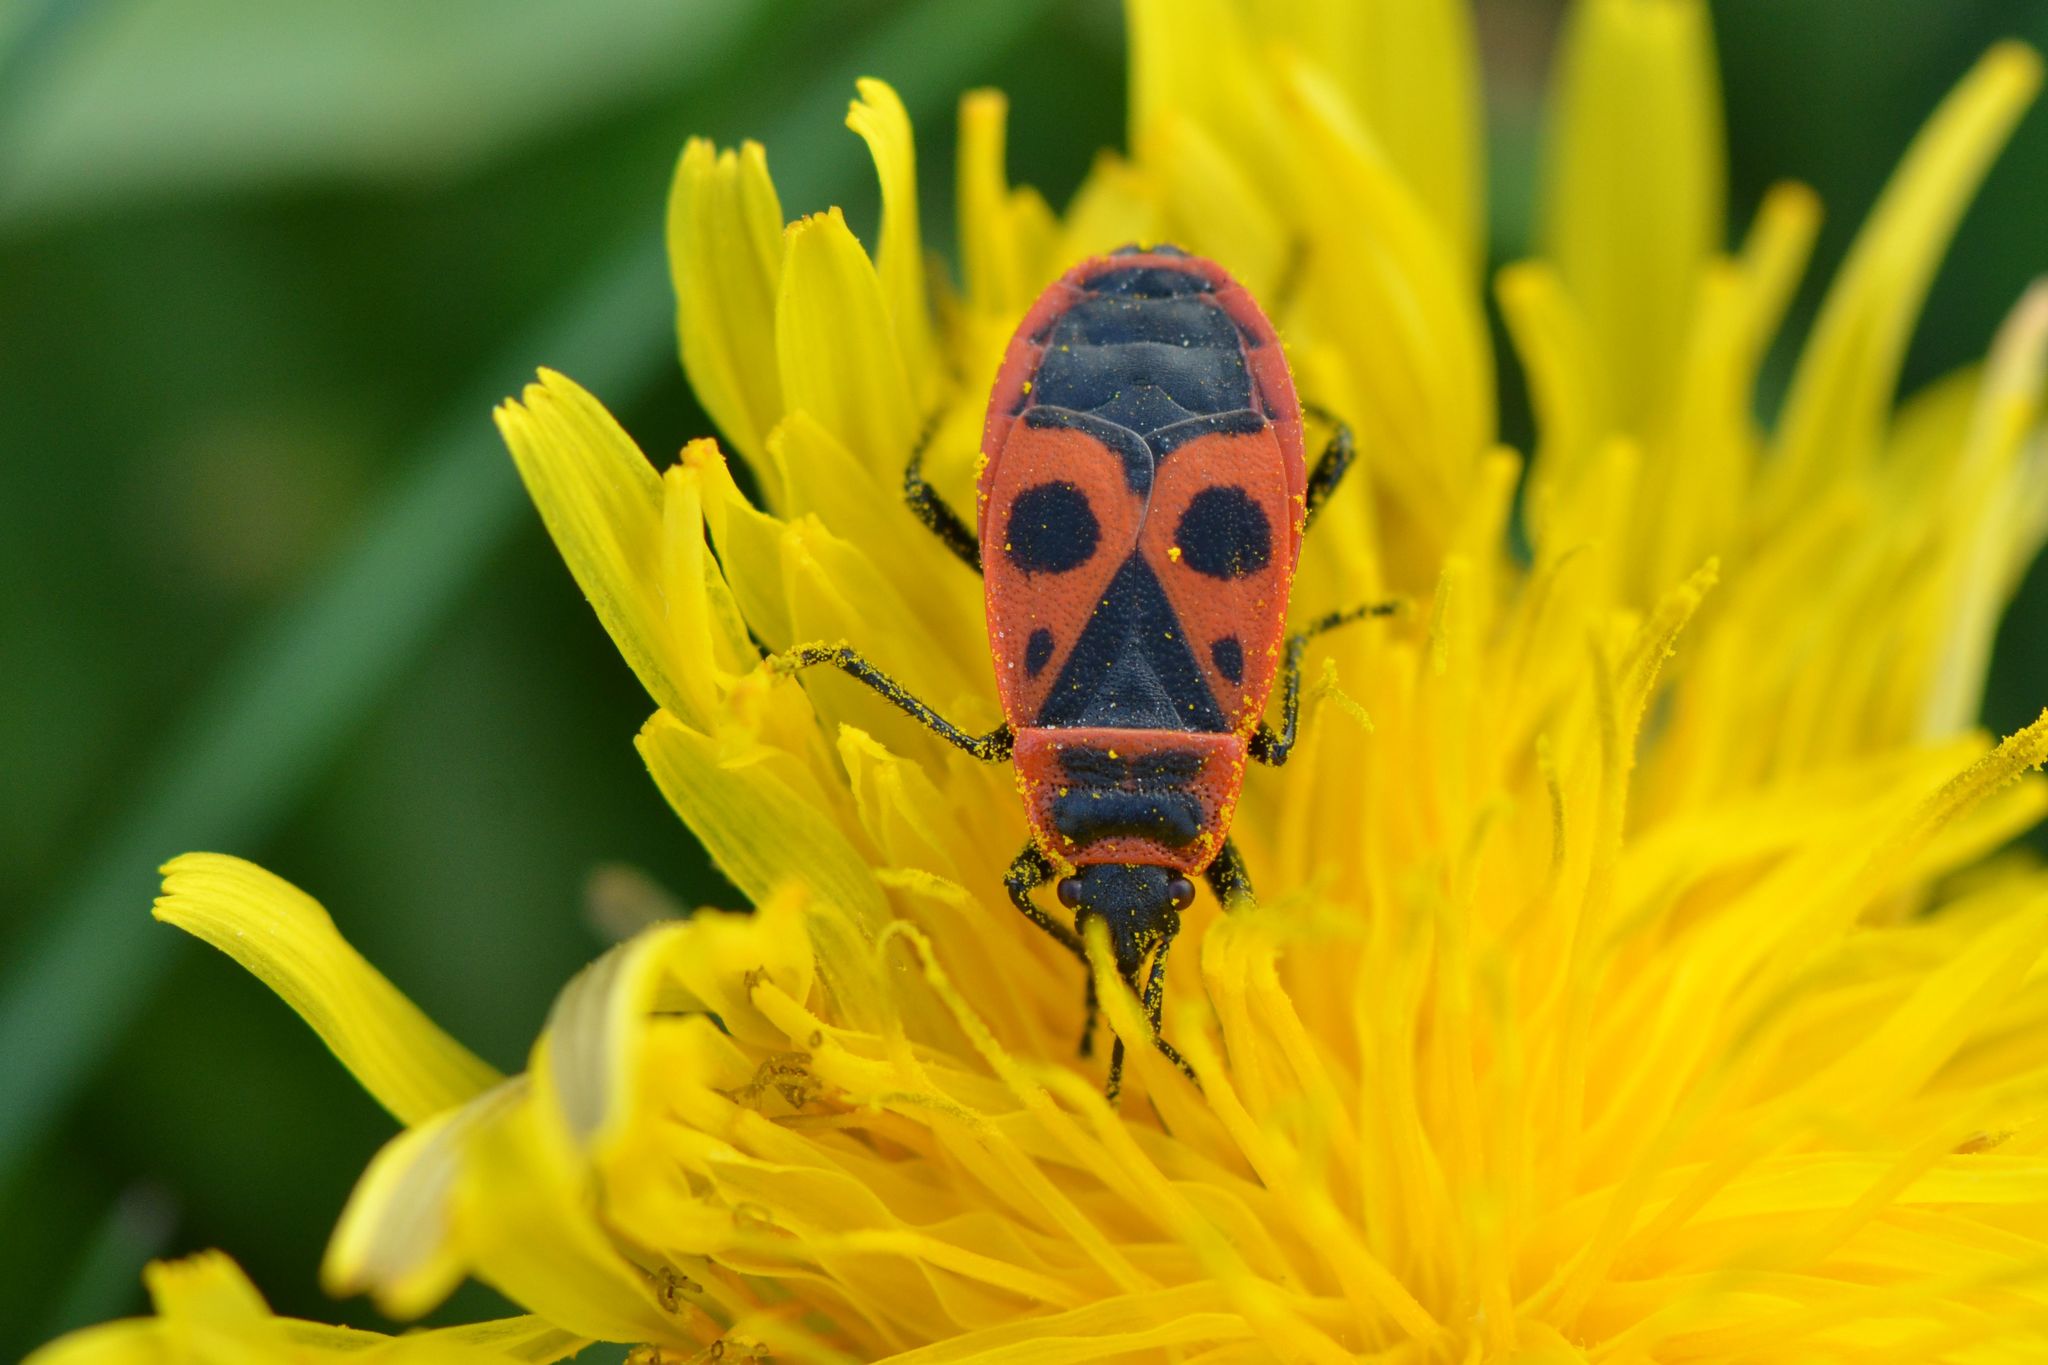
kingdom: Animalia
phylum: Arthropoda
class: Insecta
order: Hemiptera
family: Pyrrhocoridae
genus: Pyrrhocoris
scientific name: Pyrrhocoris apterus
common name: Firebug
